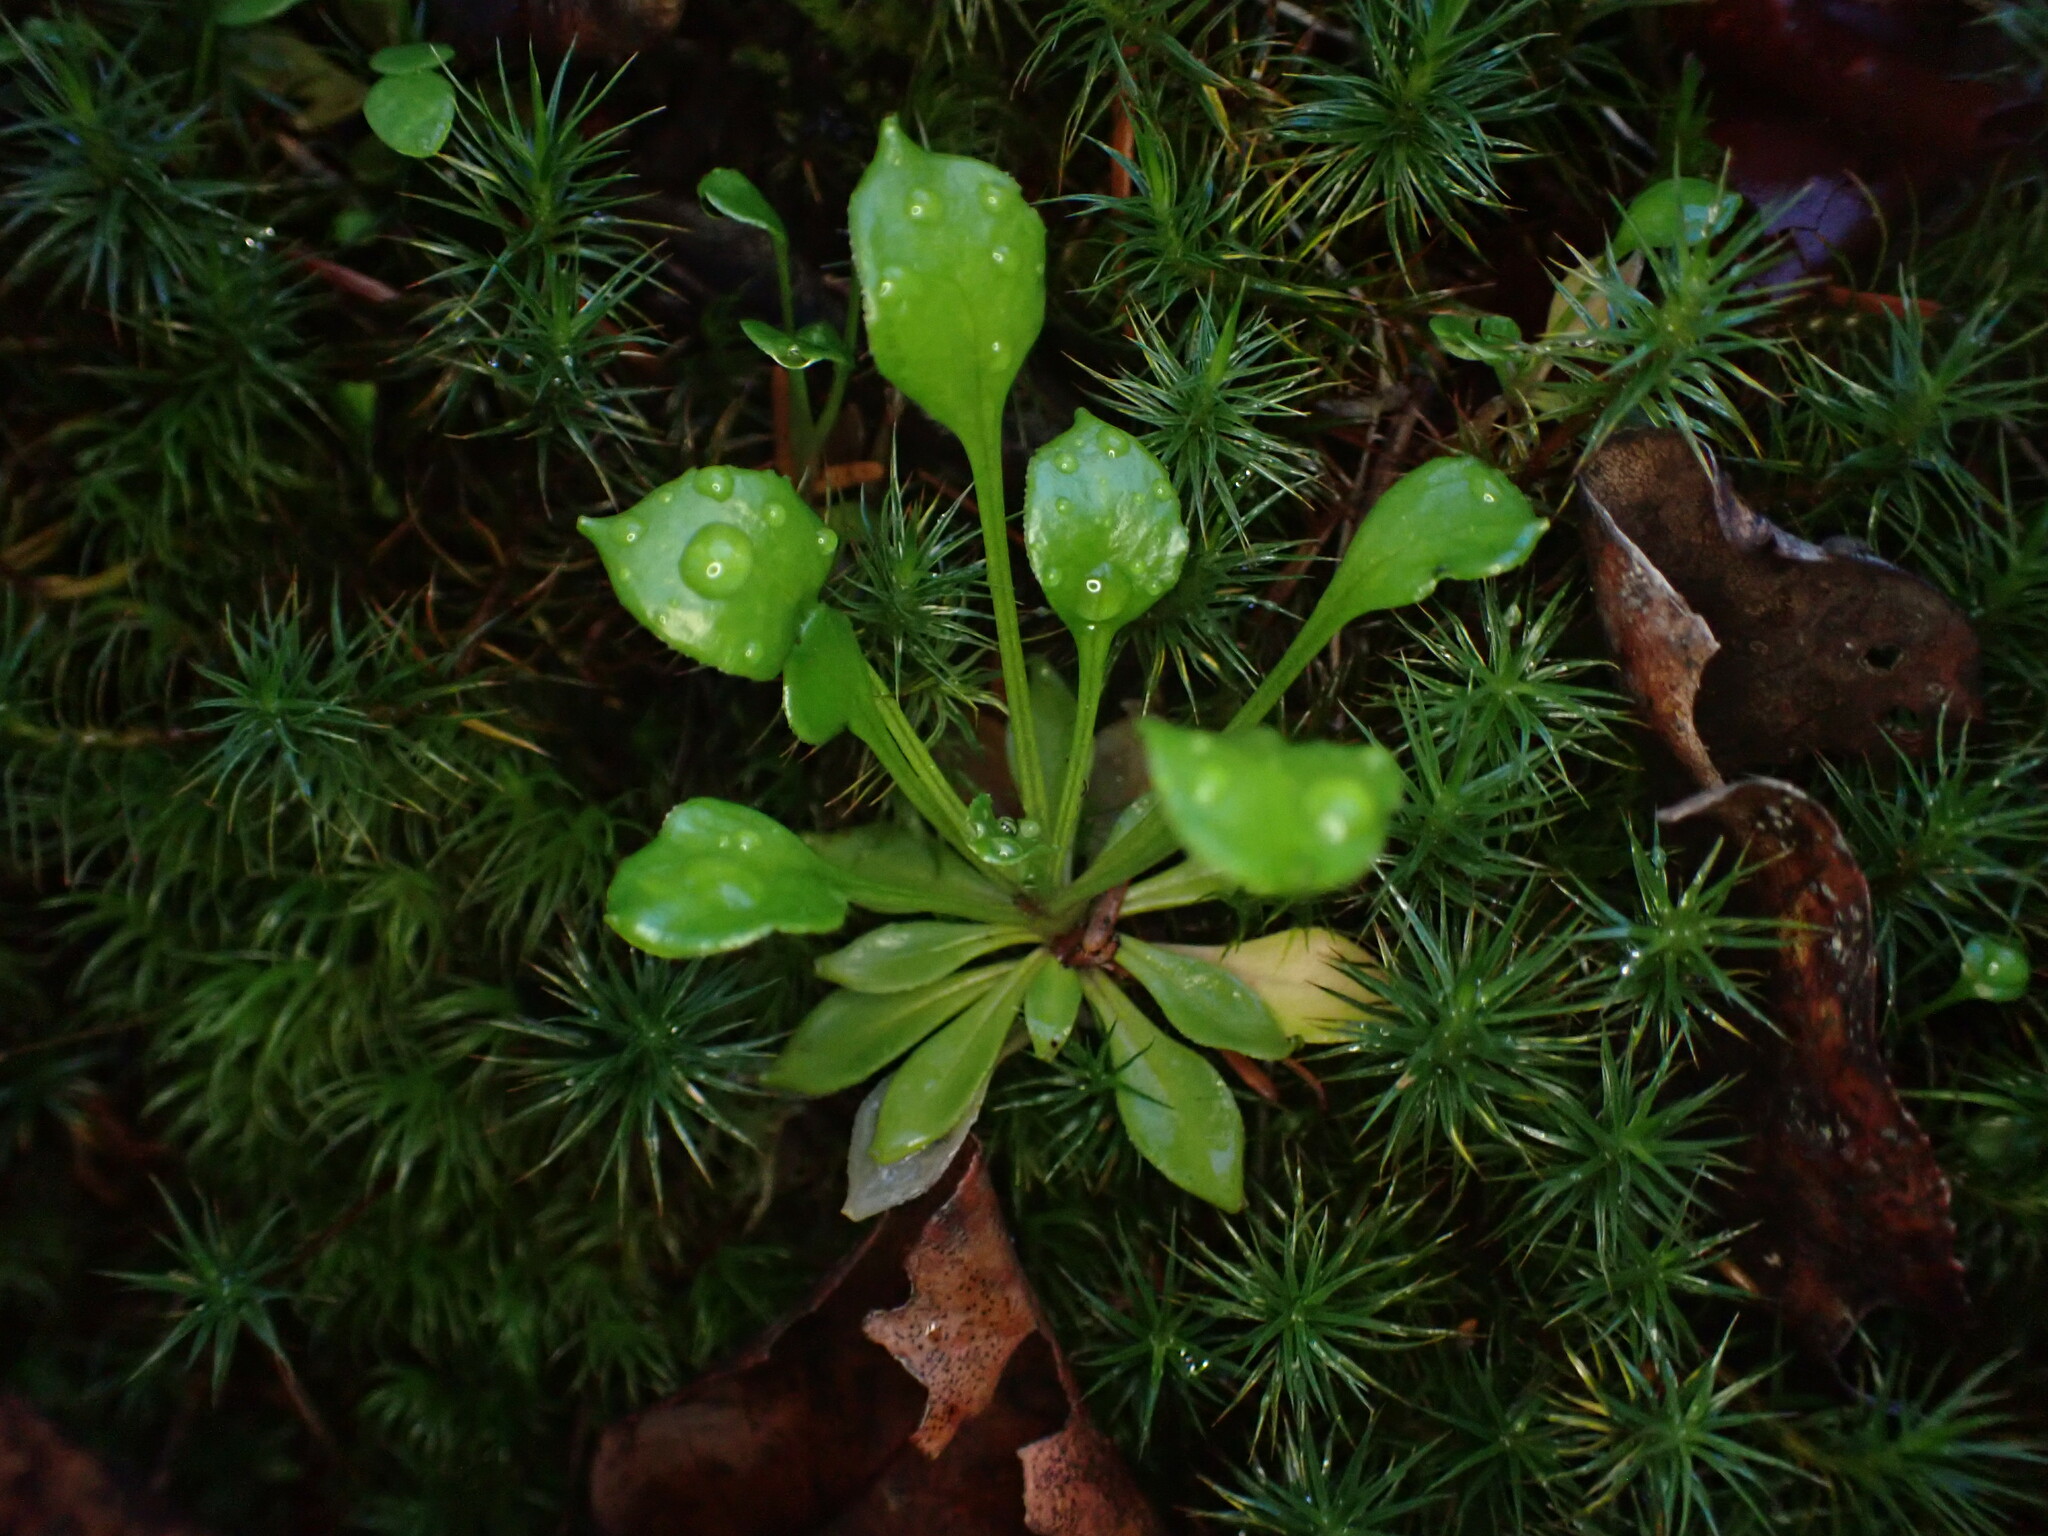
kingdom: Plantae
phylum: Tracheophyta
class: Magnoliopsida
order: Caryophyllales
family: Montiaceae
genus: Montia
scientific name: Montia parvifolia
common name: Small-leaved blinks
